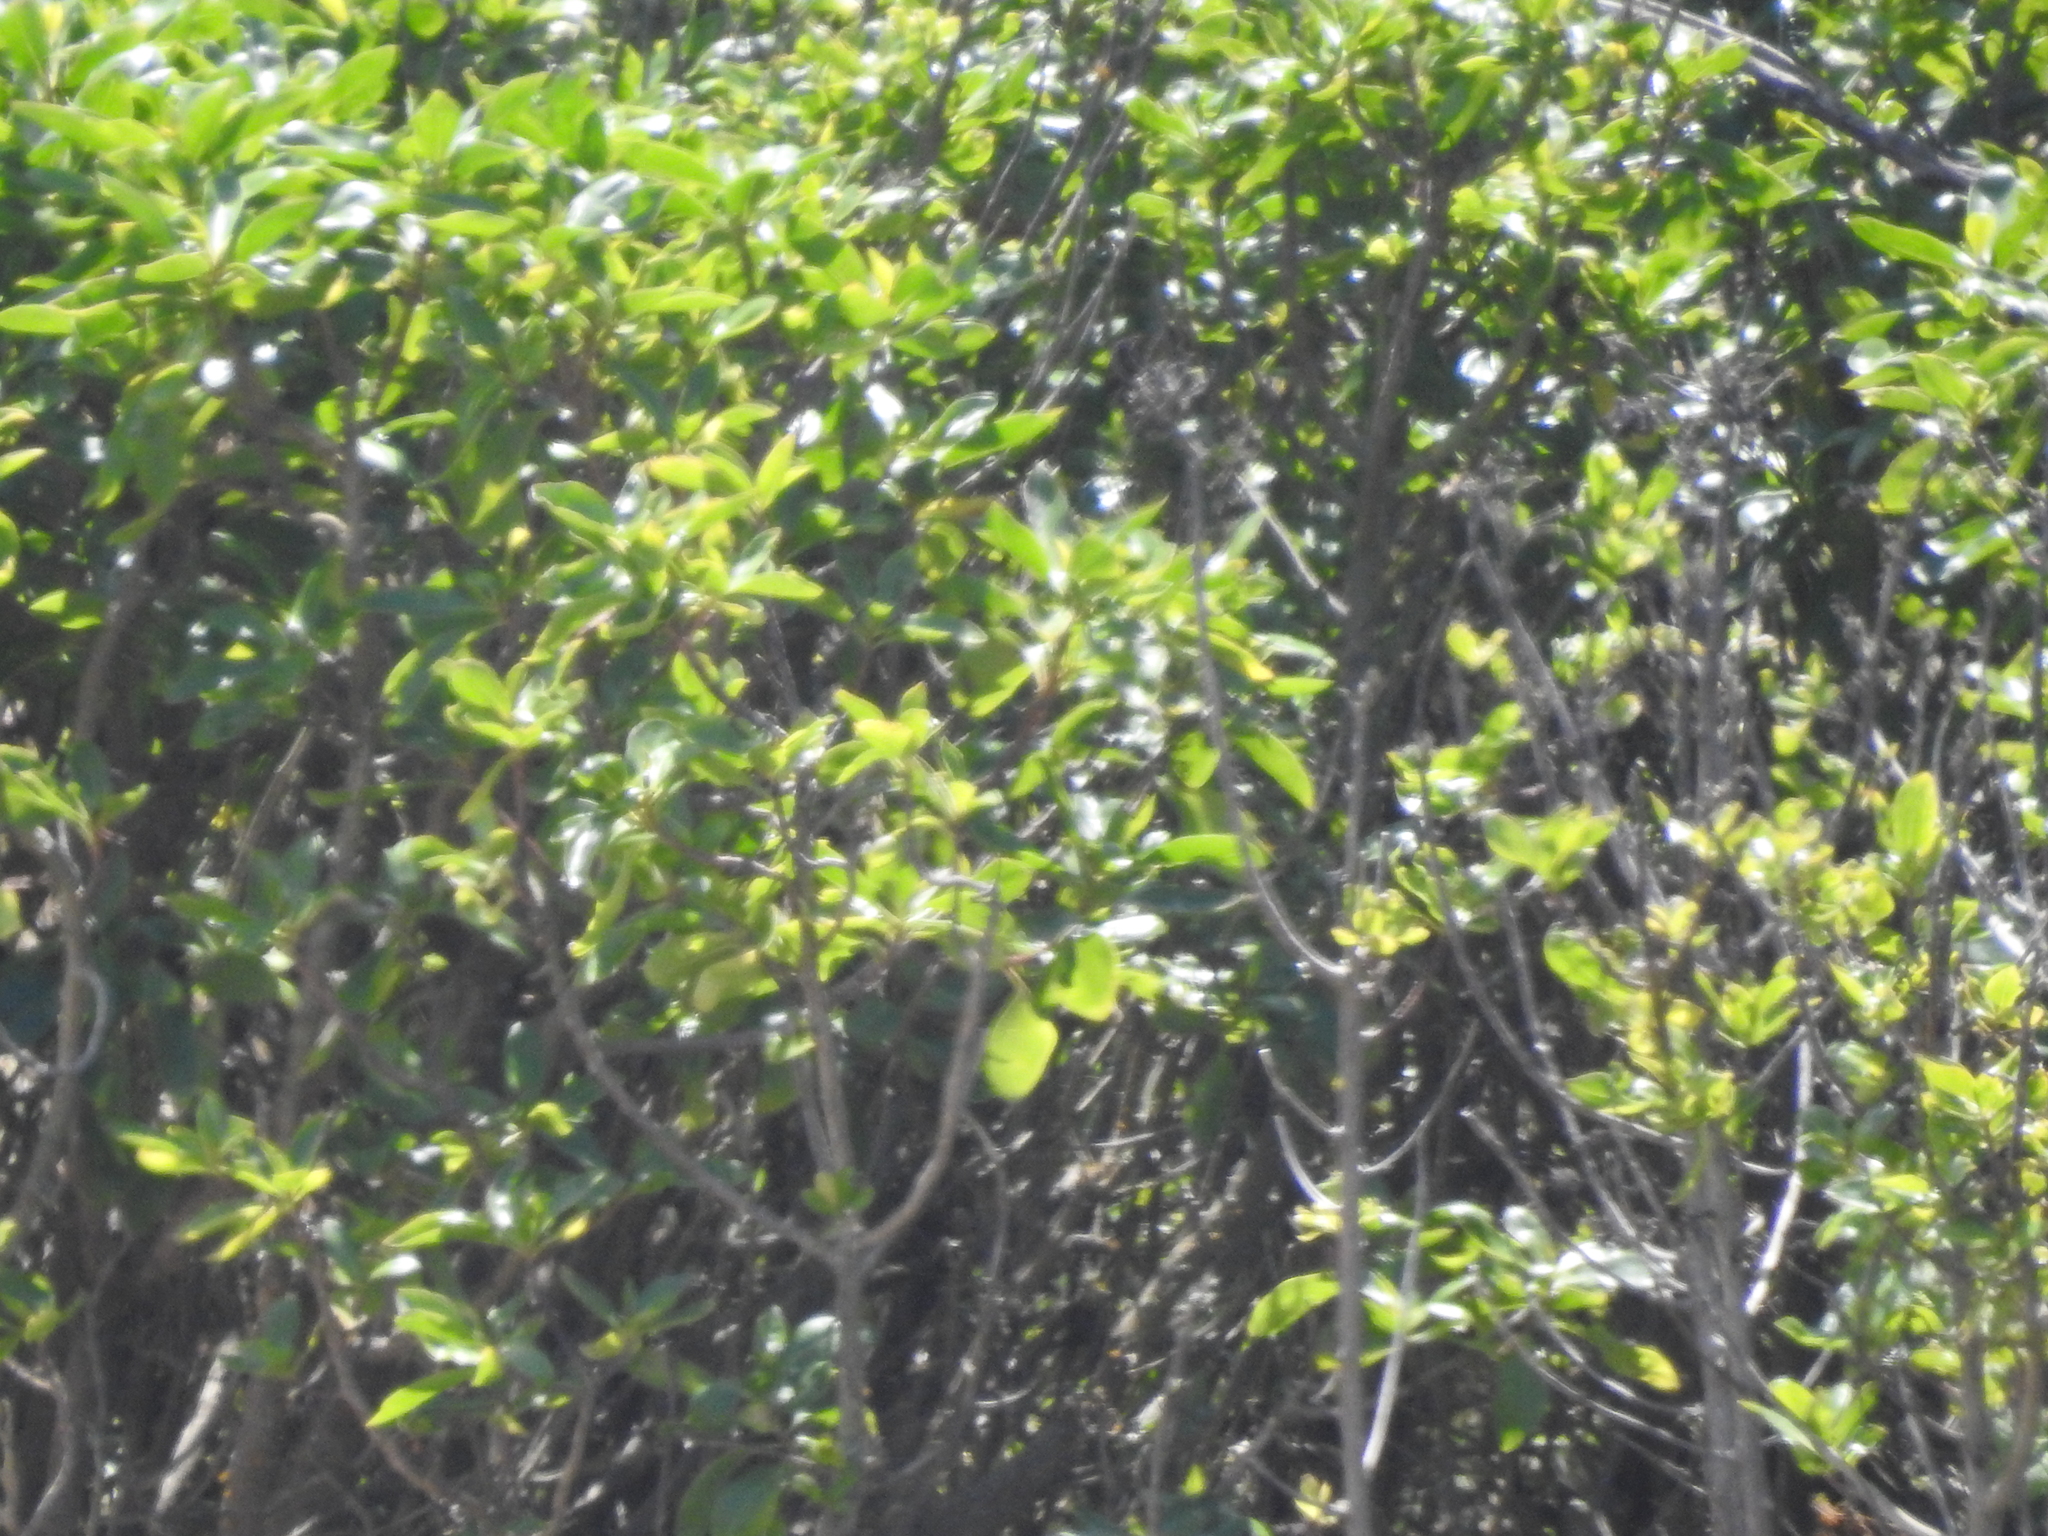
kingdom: Plantae
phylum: Tracheophyta
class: Magnoliopsida
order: Lamiales
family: Scrophulariaceae
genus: Myoporum
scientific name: Myoporum laetum
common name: Ngaio tree
